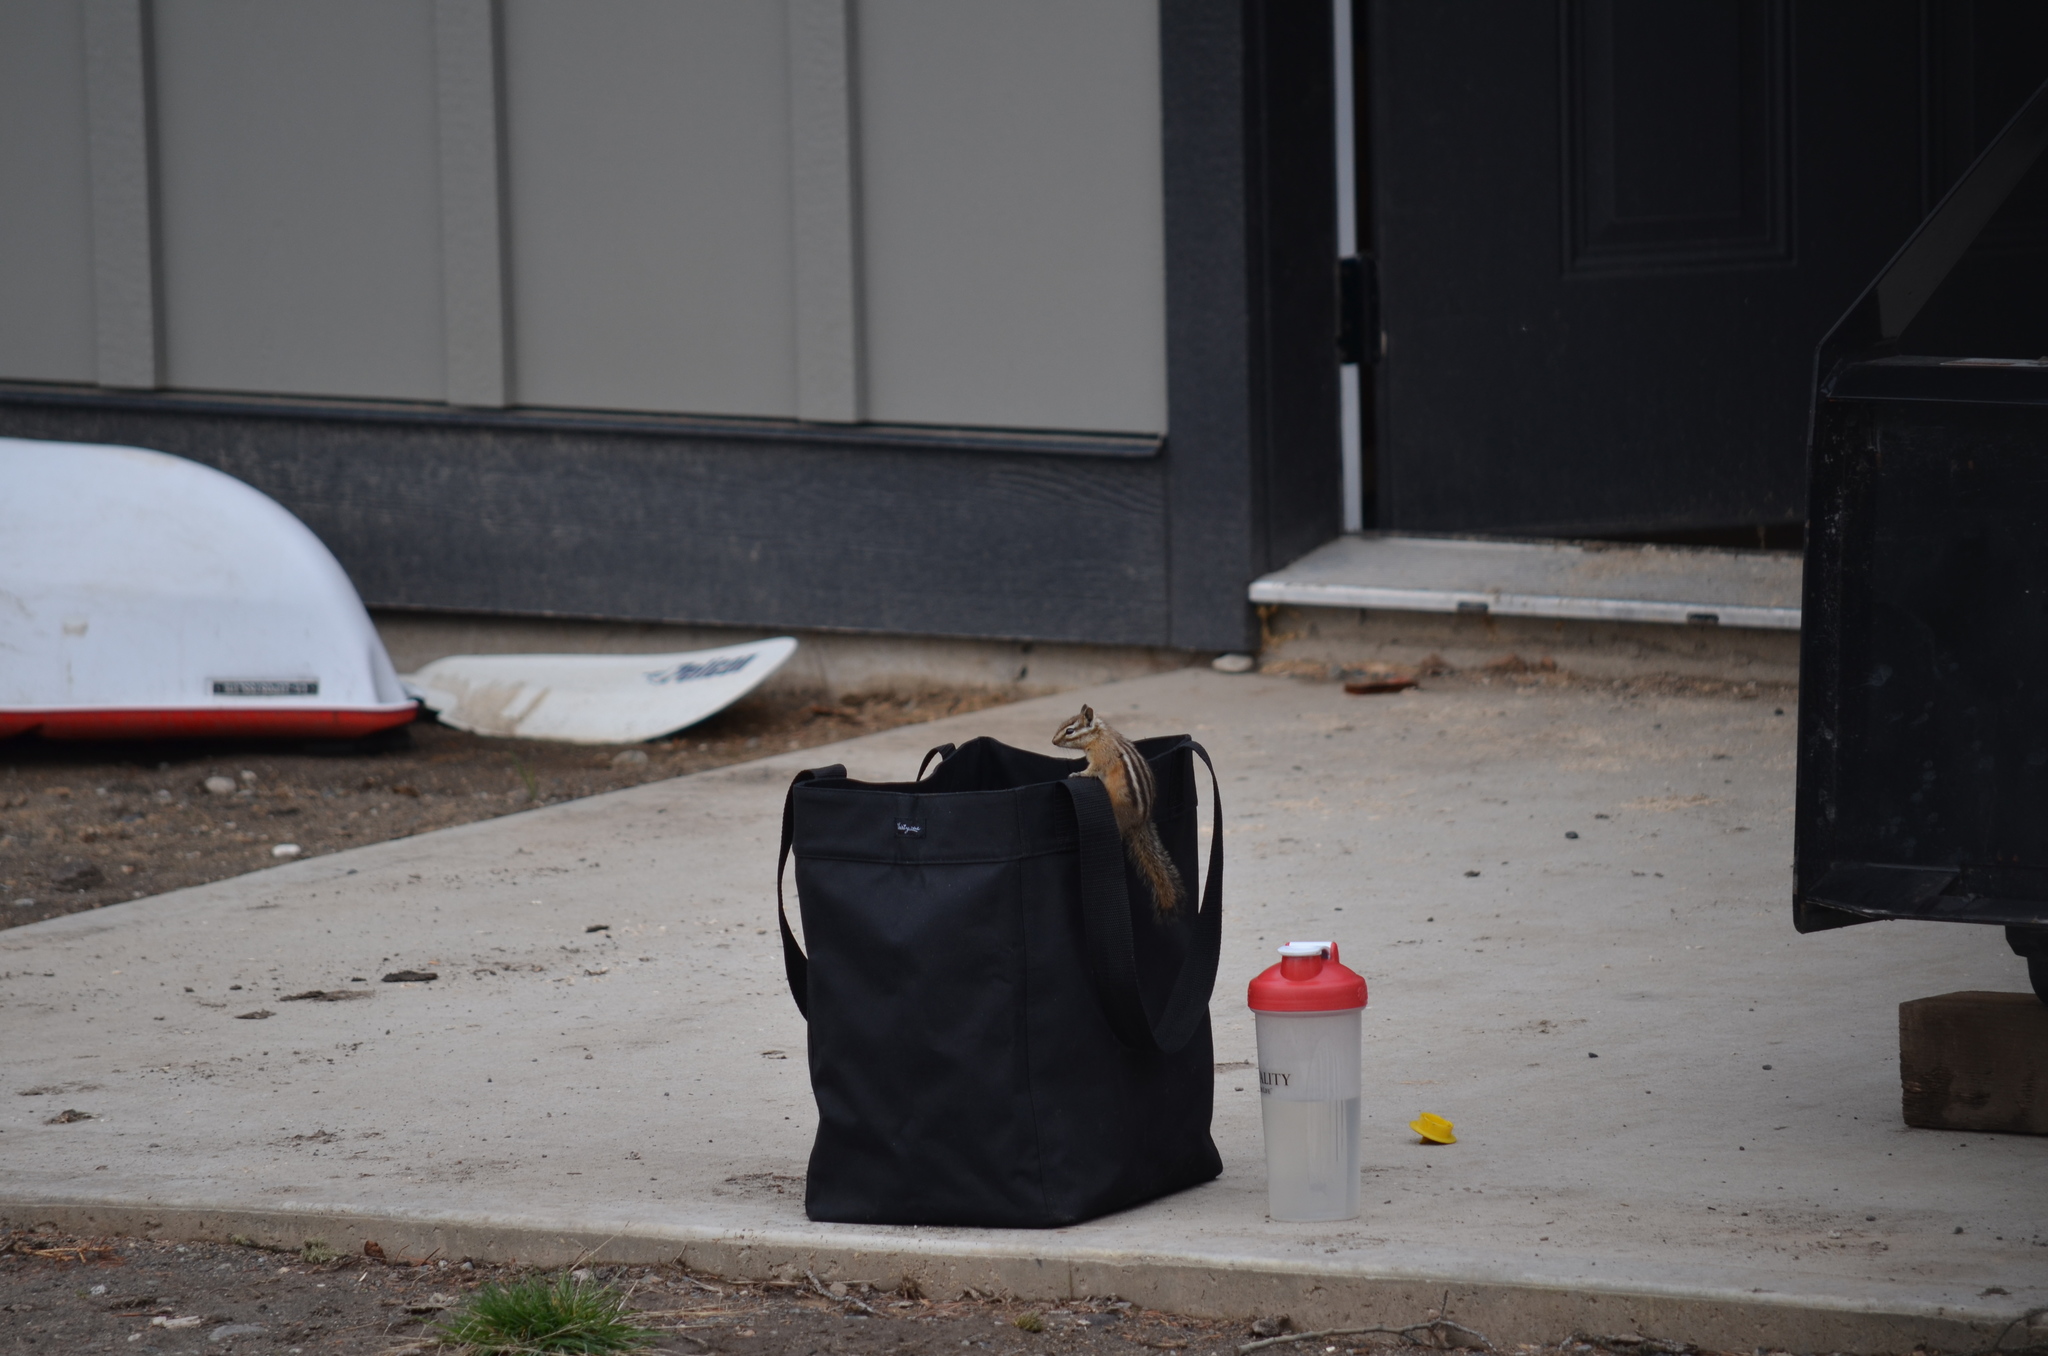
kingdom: Animalia
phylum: Chordata
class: Mammalia
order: Rodentia
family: Sciuridae
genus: Tamias
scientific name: Tamias amoenus
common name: Yellow-pine chipmunk
